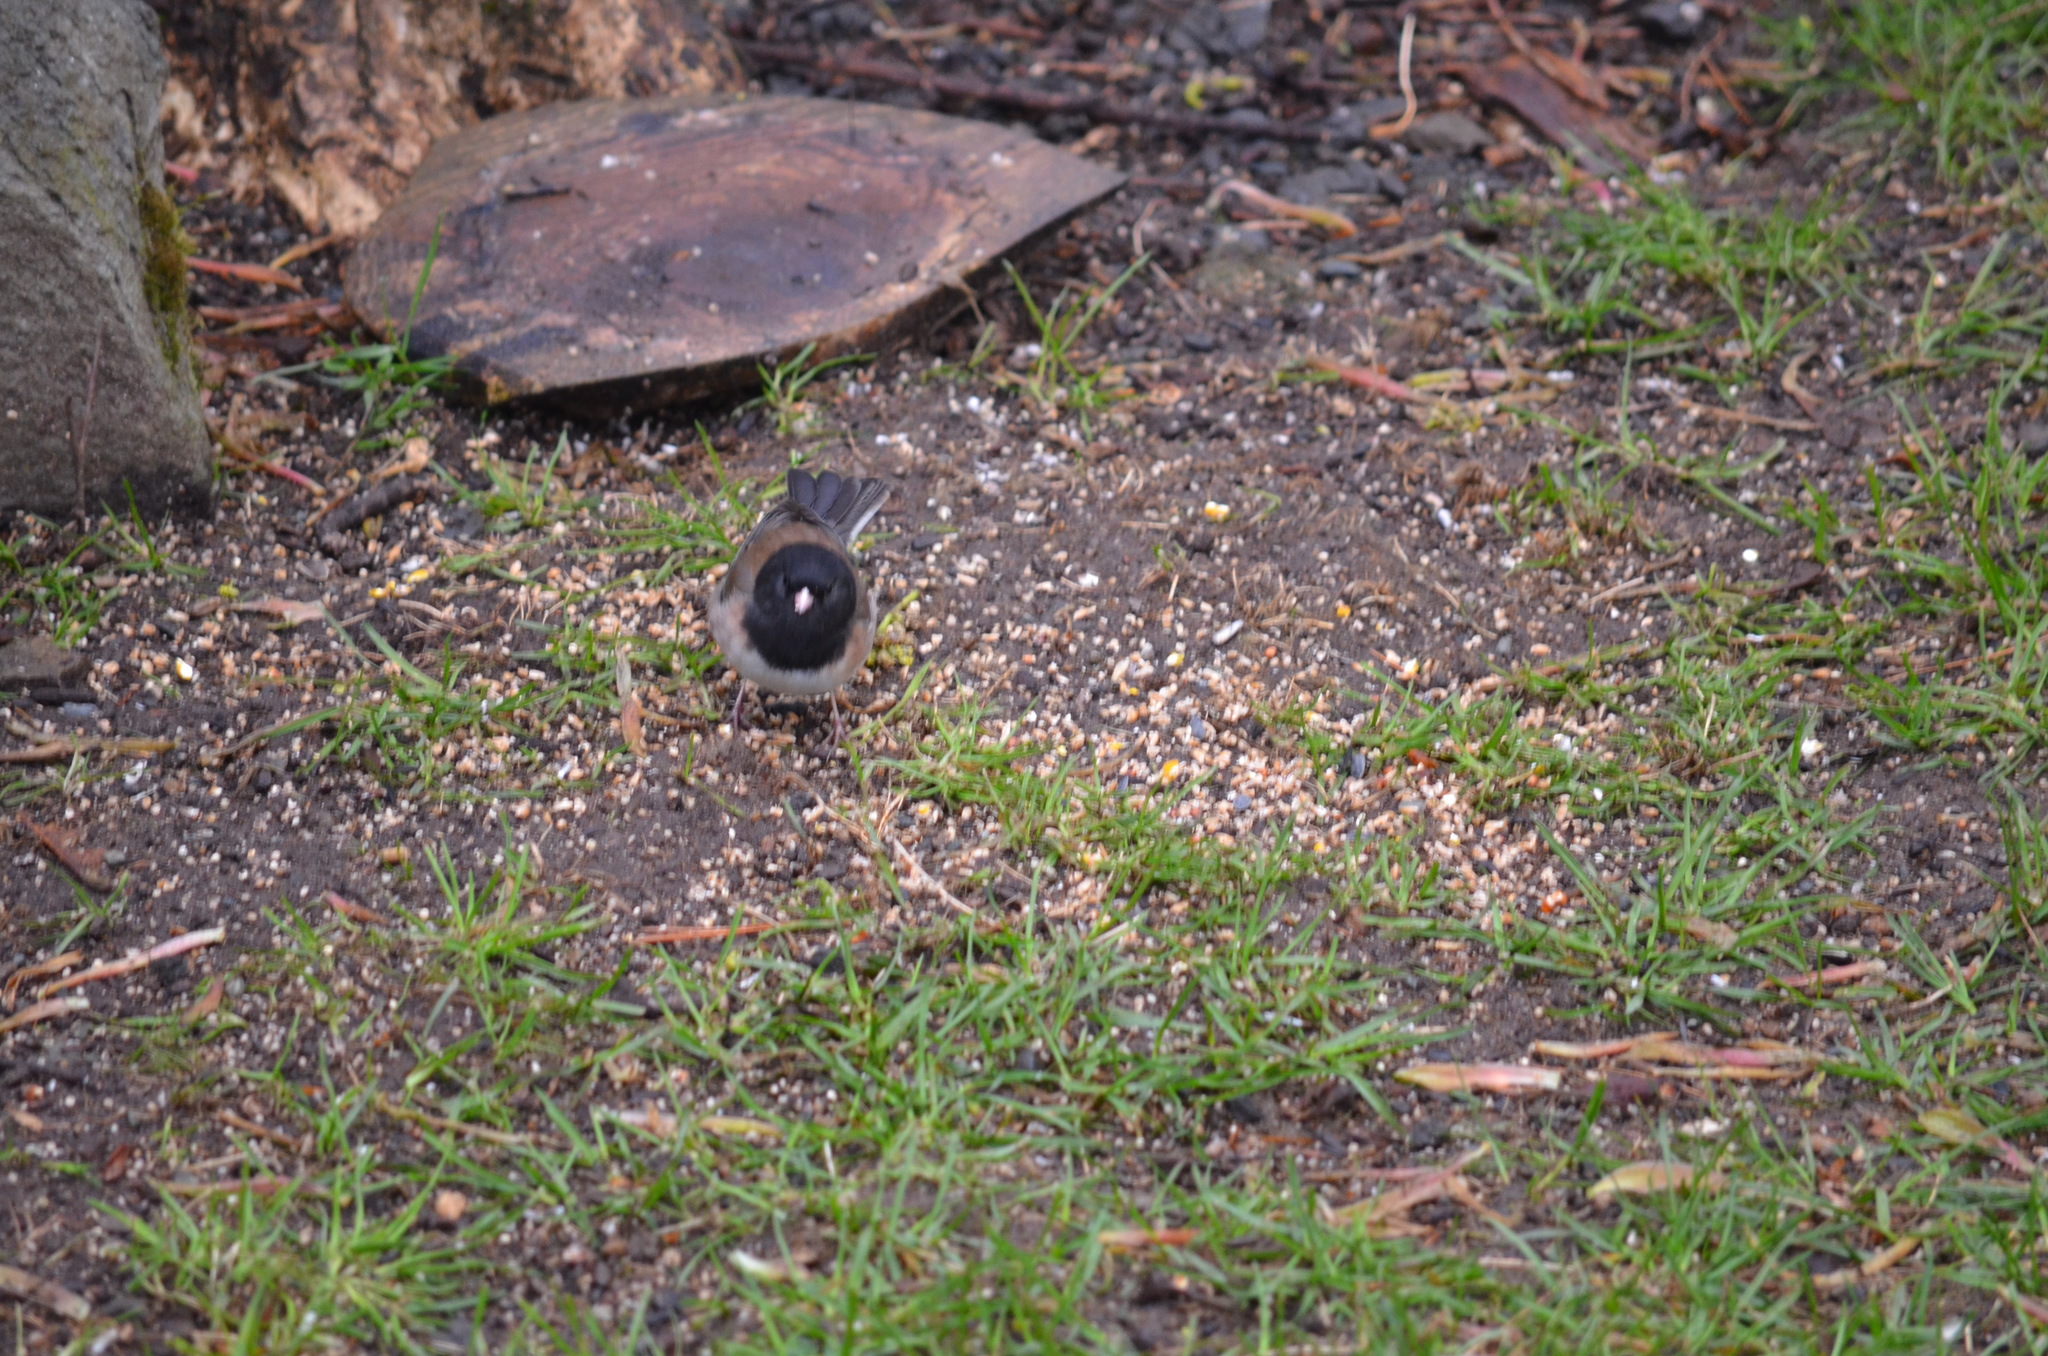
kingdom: Animalia
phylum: Chordata
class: Aves
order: Passeriformes
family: Passerellidae
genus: Junco
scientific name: Junco hyemalis
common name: Dark-eyed junco
